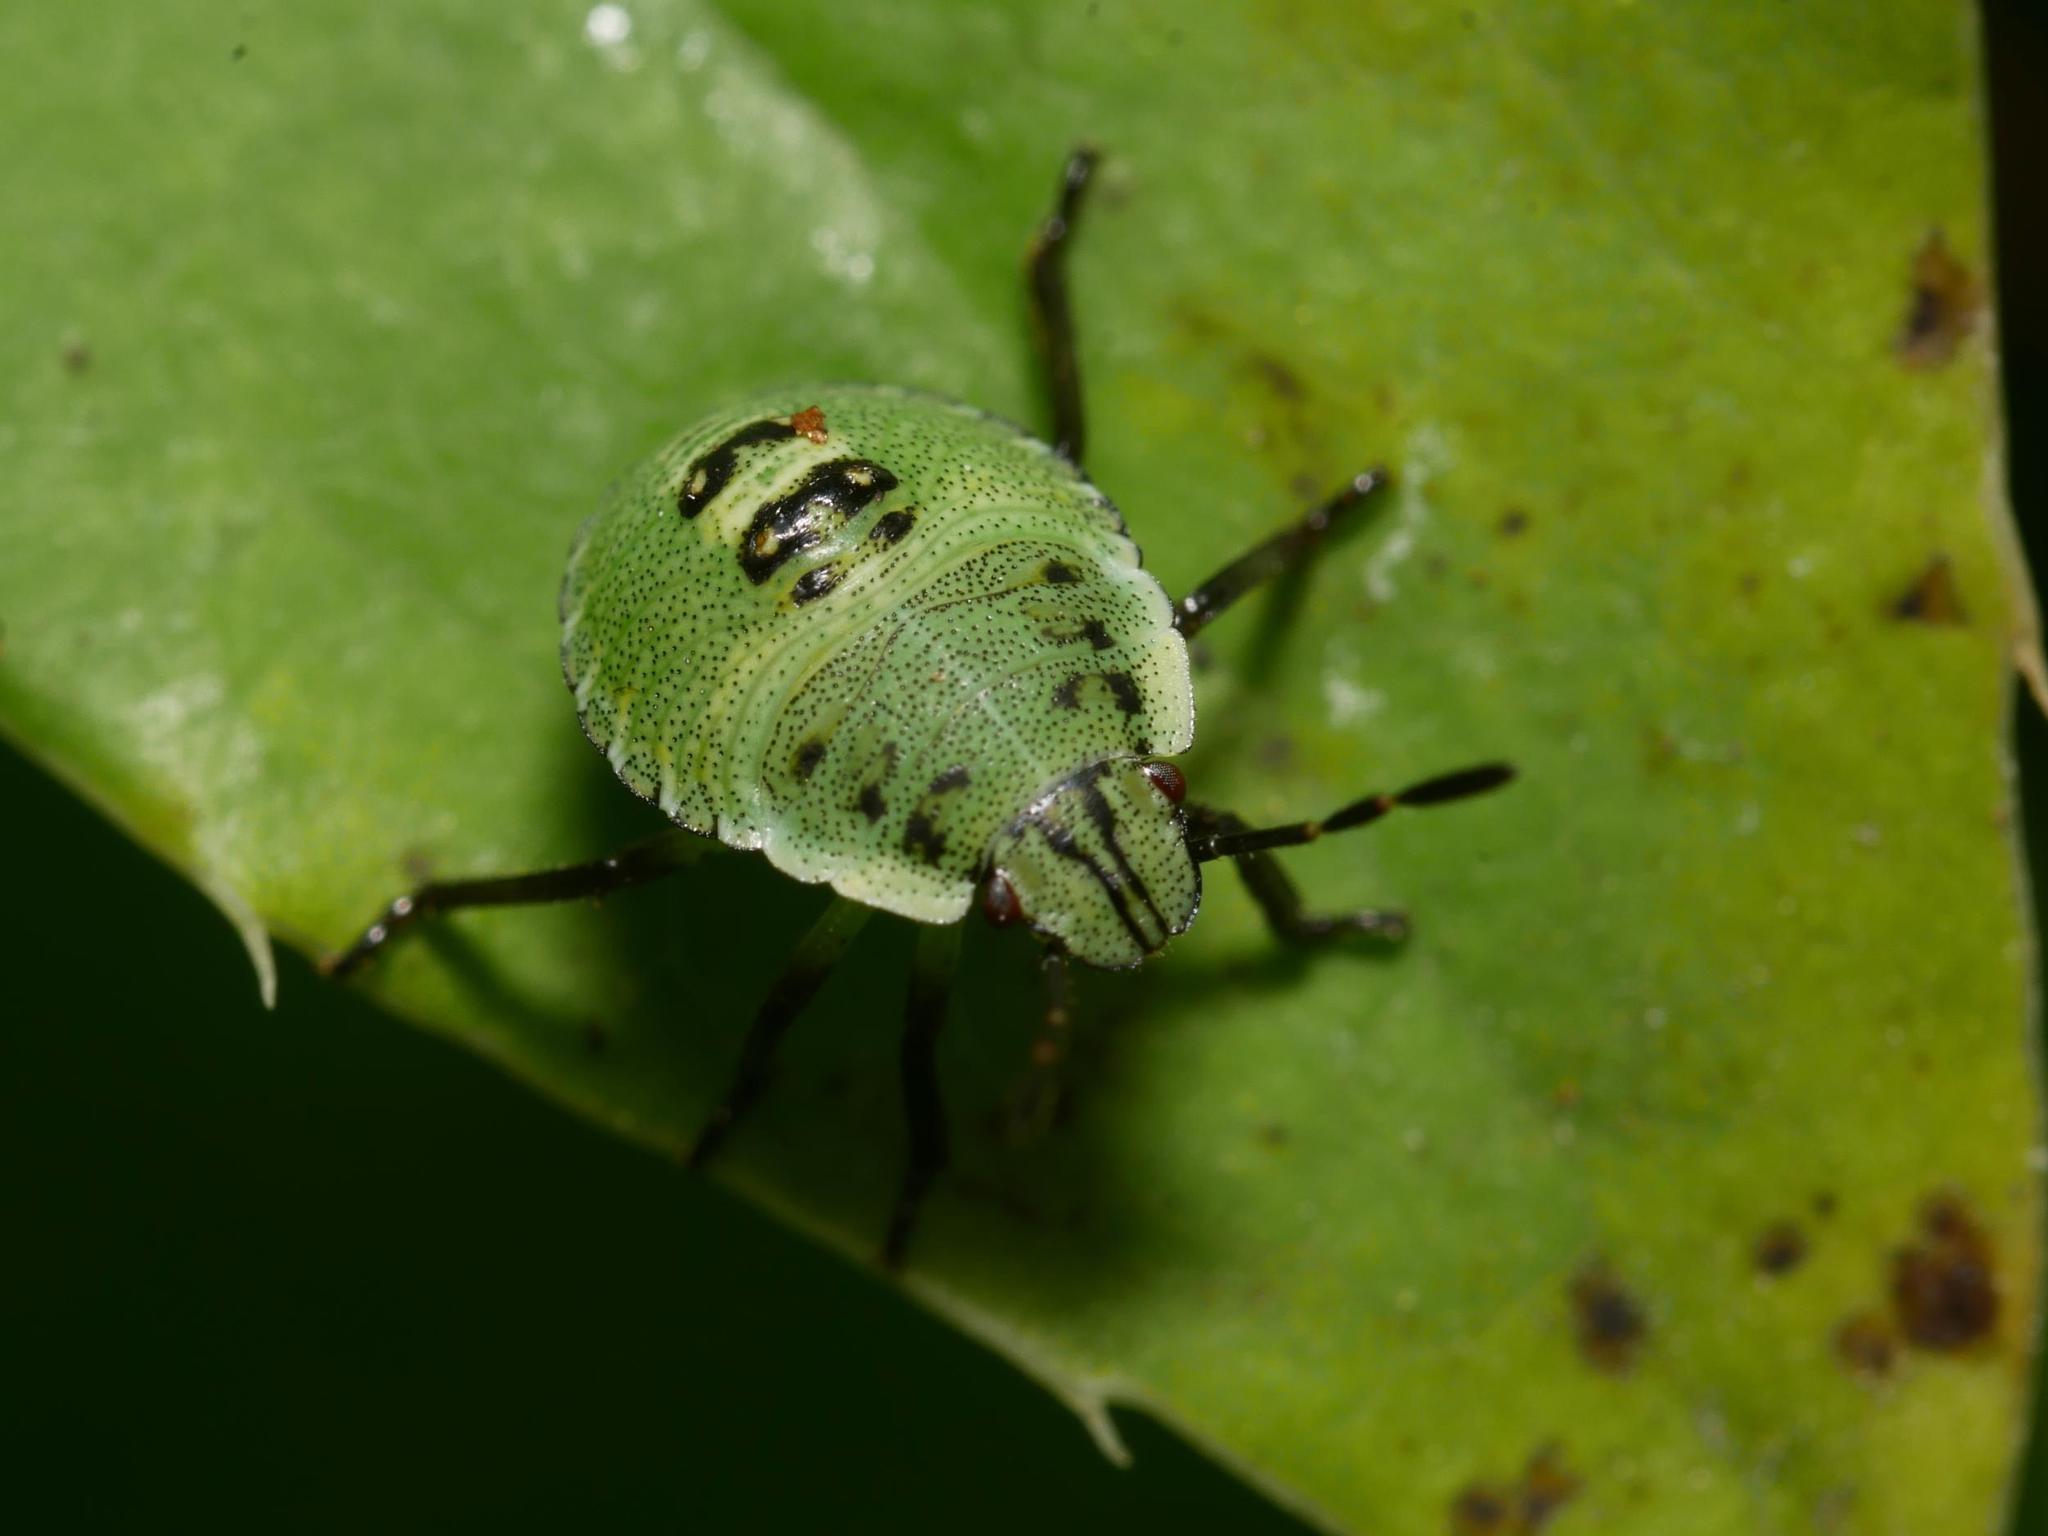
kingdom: Animalia
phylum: Arthropoda
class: Insecta
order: Hemiptera
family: Pentatomidae
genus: Palomena
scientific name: Palomena prasina
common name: Green shieldbug
